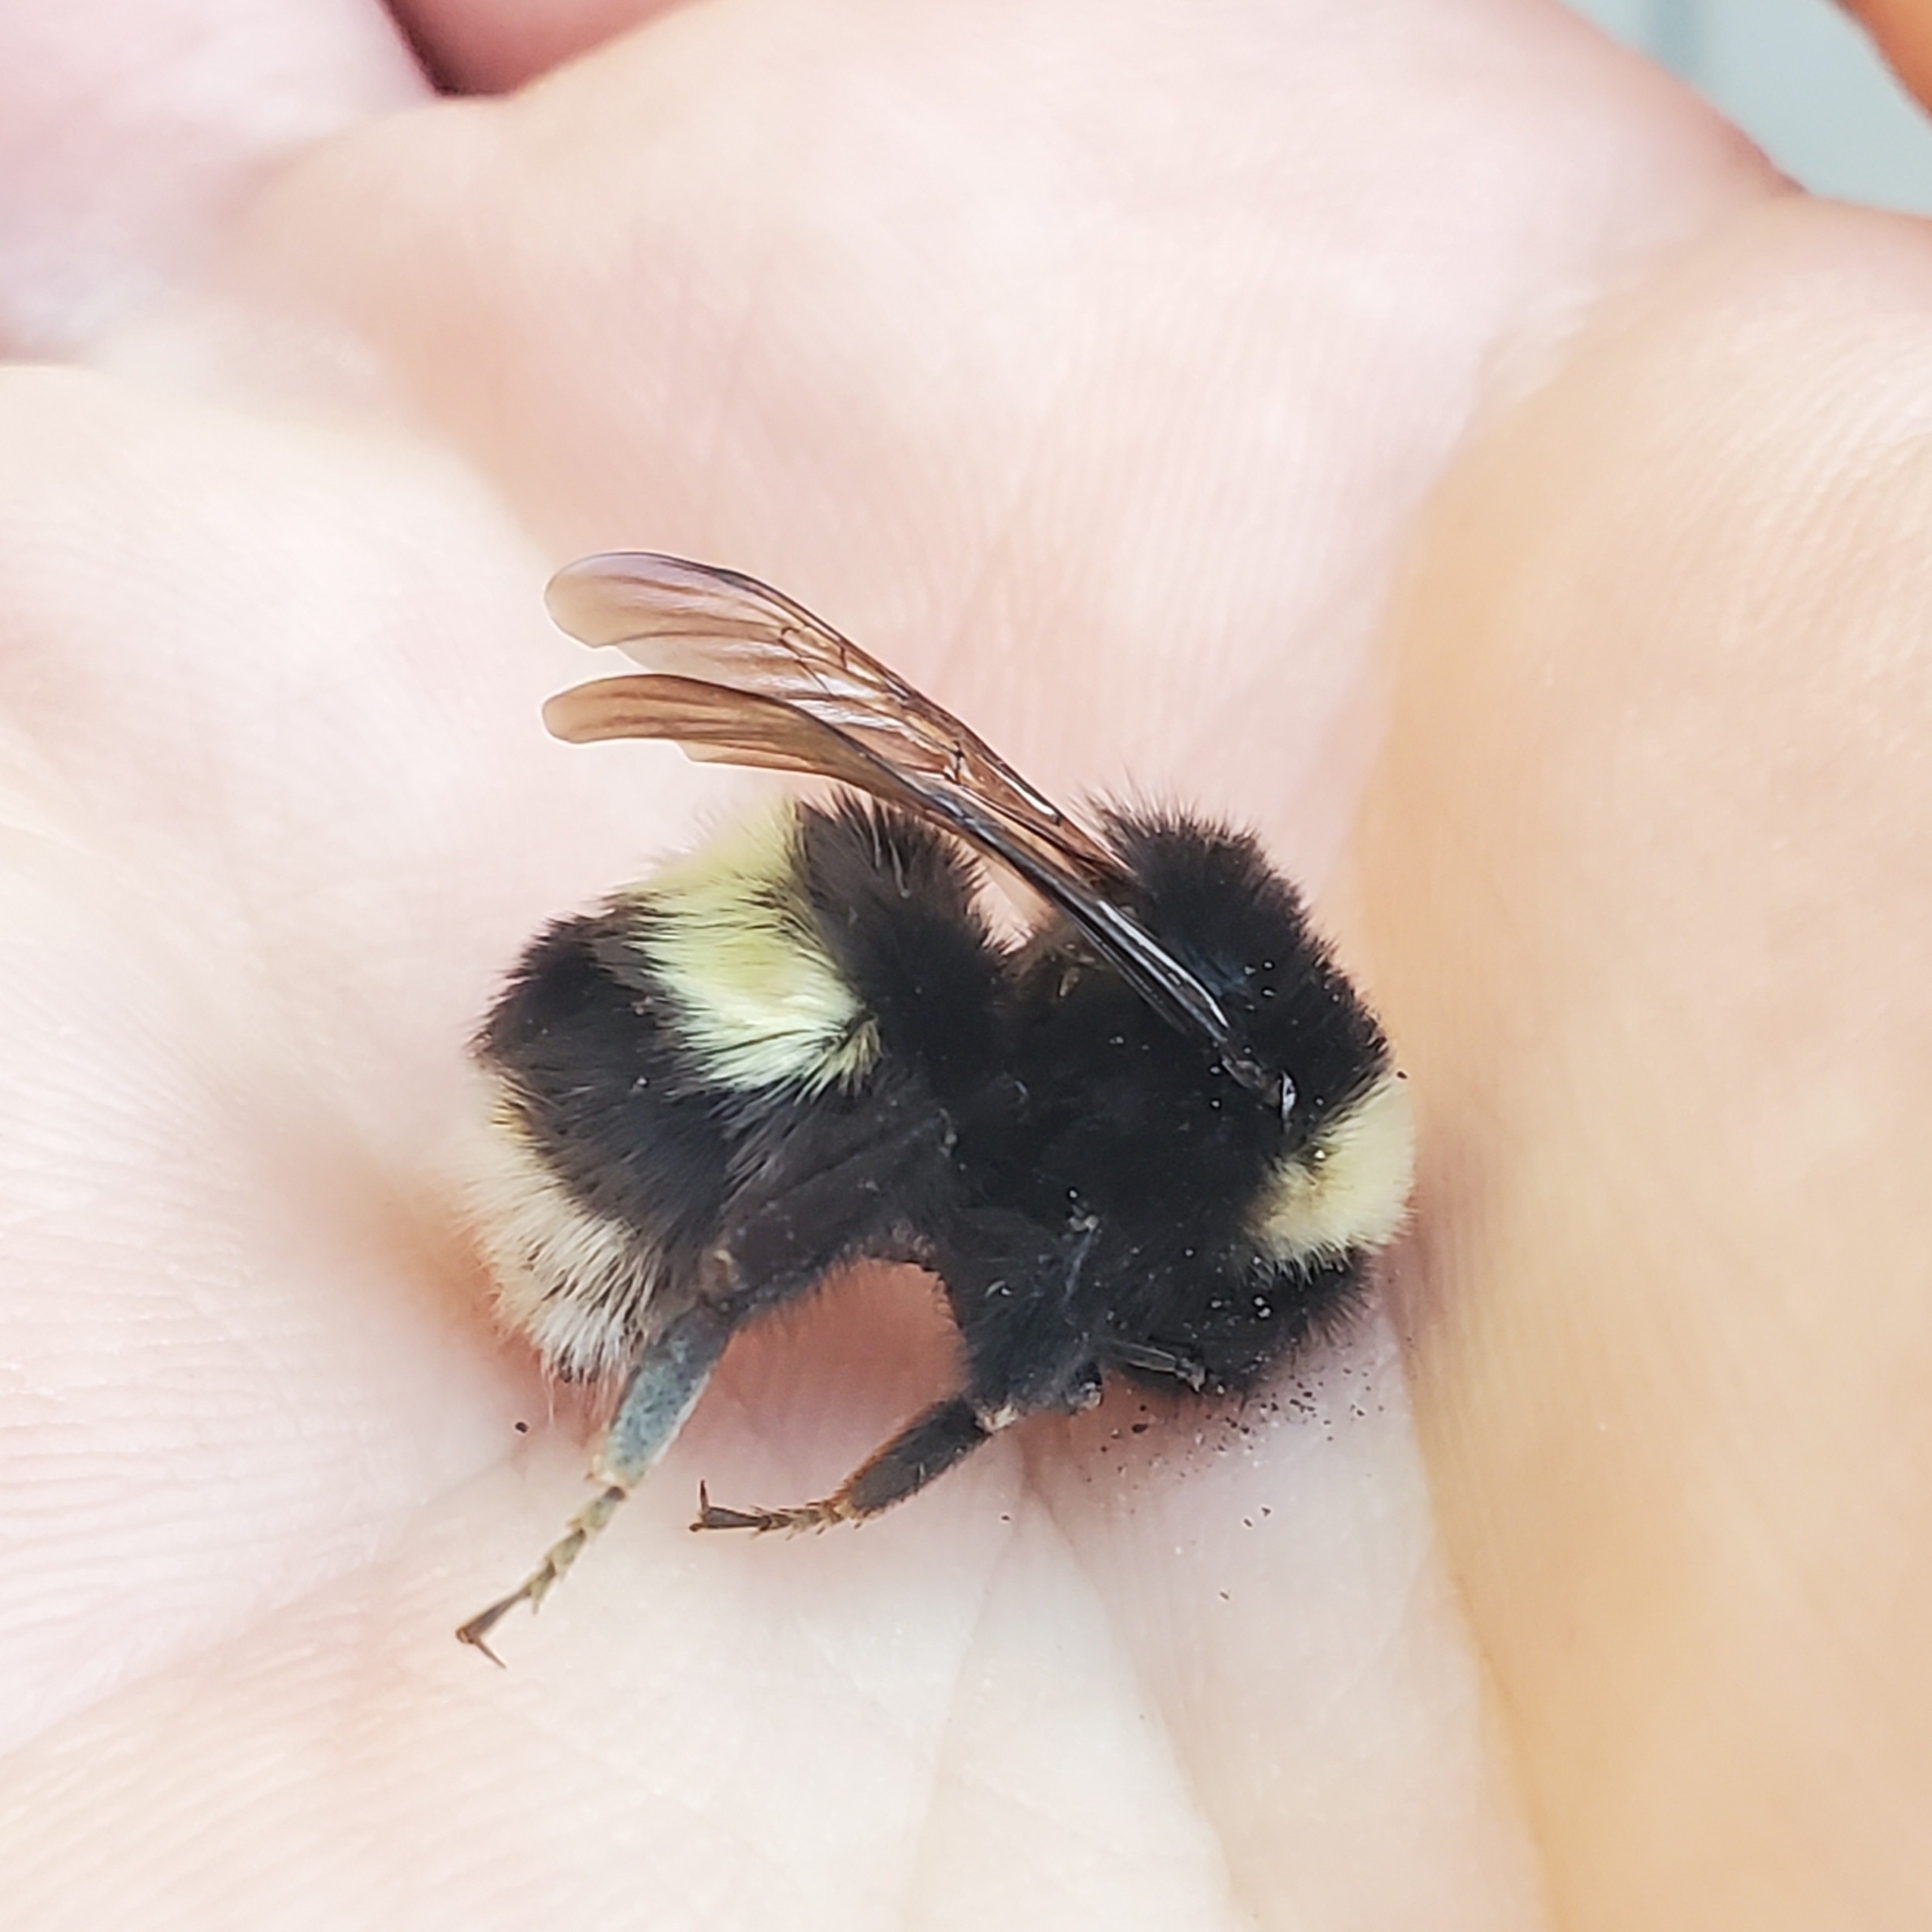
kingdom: Animalia
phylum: Arthropoda
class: Insecta
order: Hymenoptera
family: Apidae
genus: Bombus
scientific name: Bombus cryptarum
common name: Cryptic bumblebee
